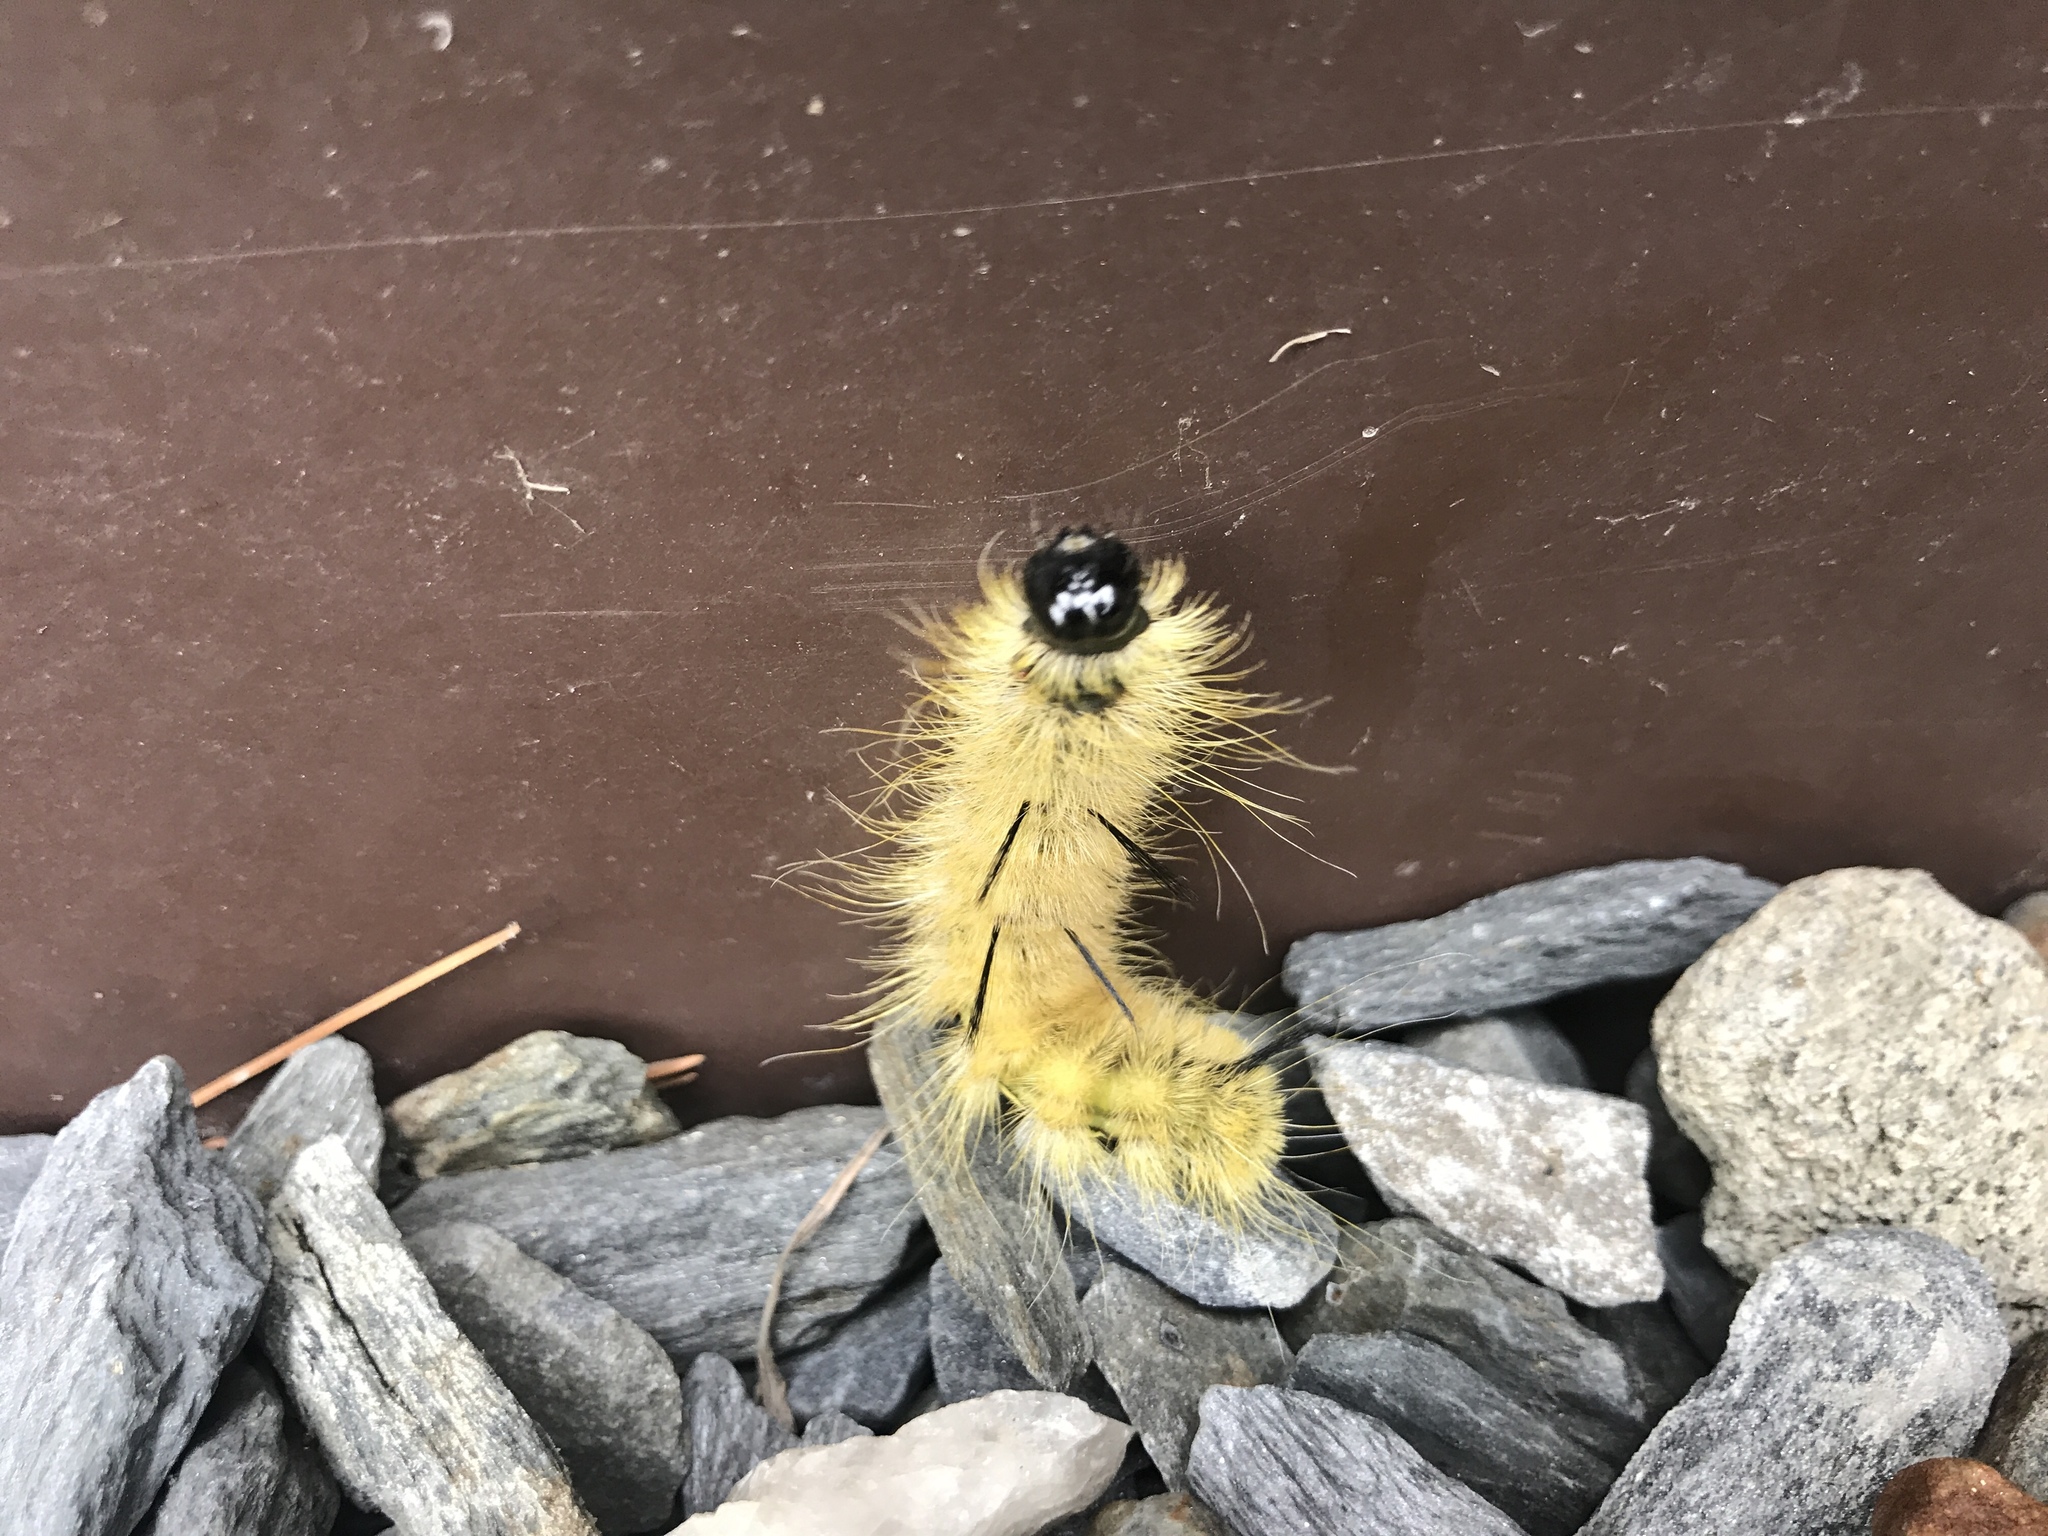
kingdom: Animalia
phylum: Arthropoda
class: Insecta
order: Lepidoptera
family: Noctuidae
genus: Acronicta
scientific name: Acronicta americana
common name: American dagger
